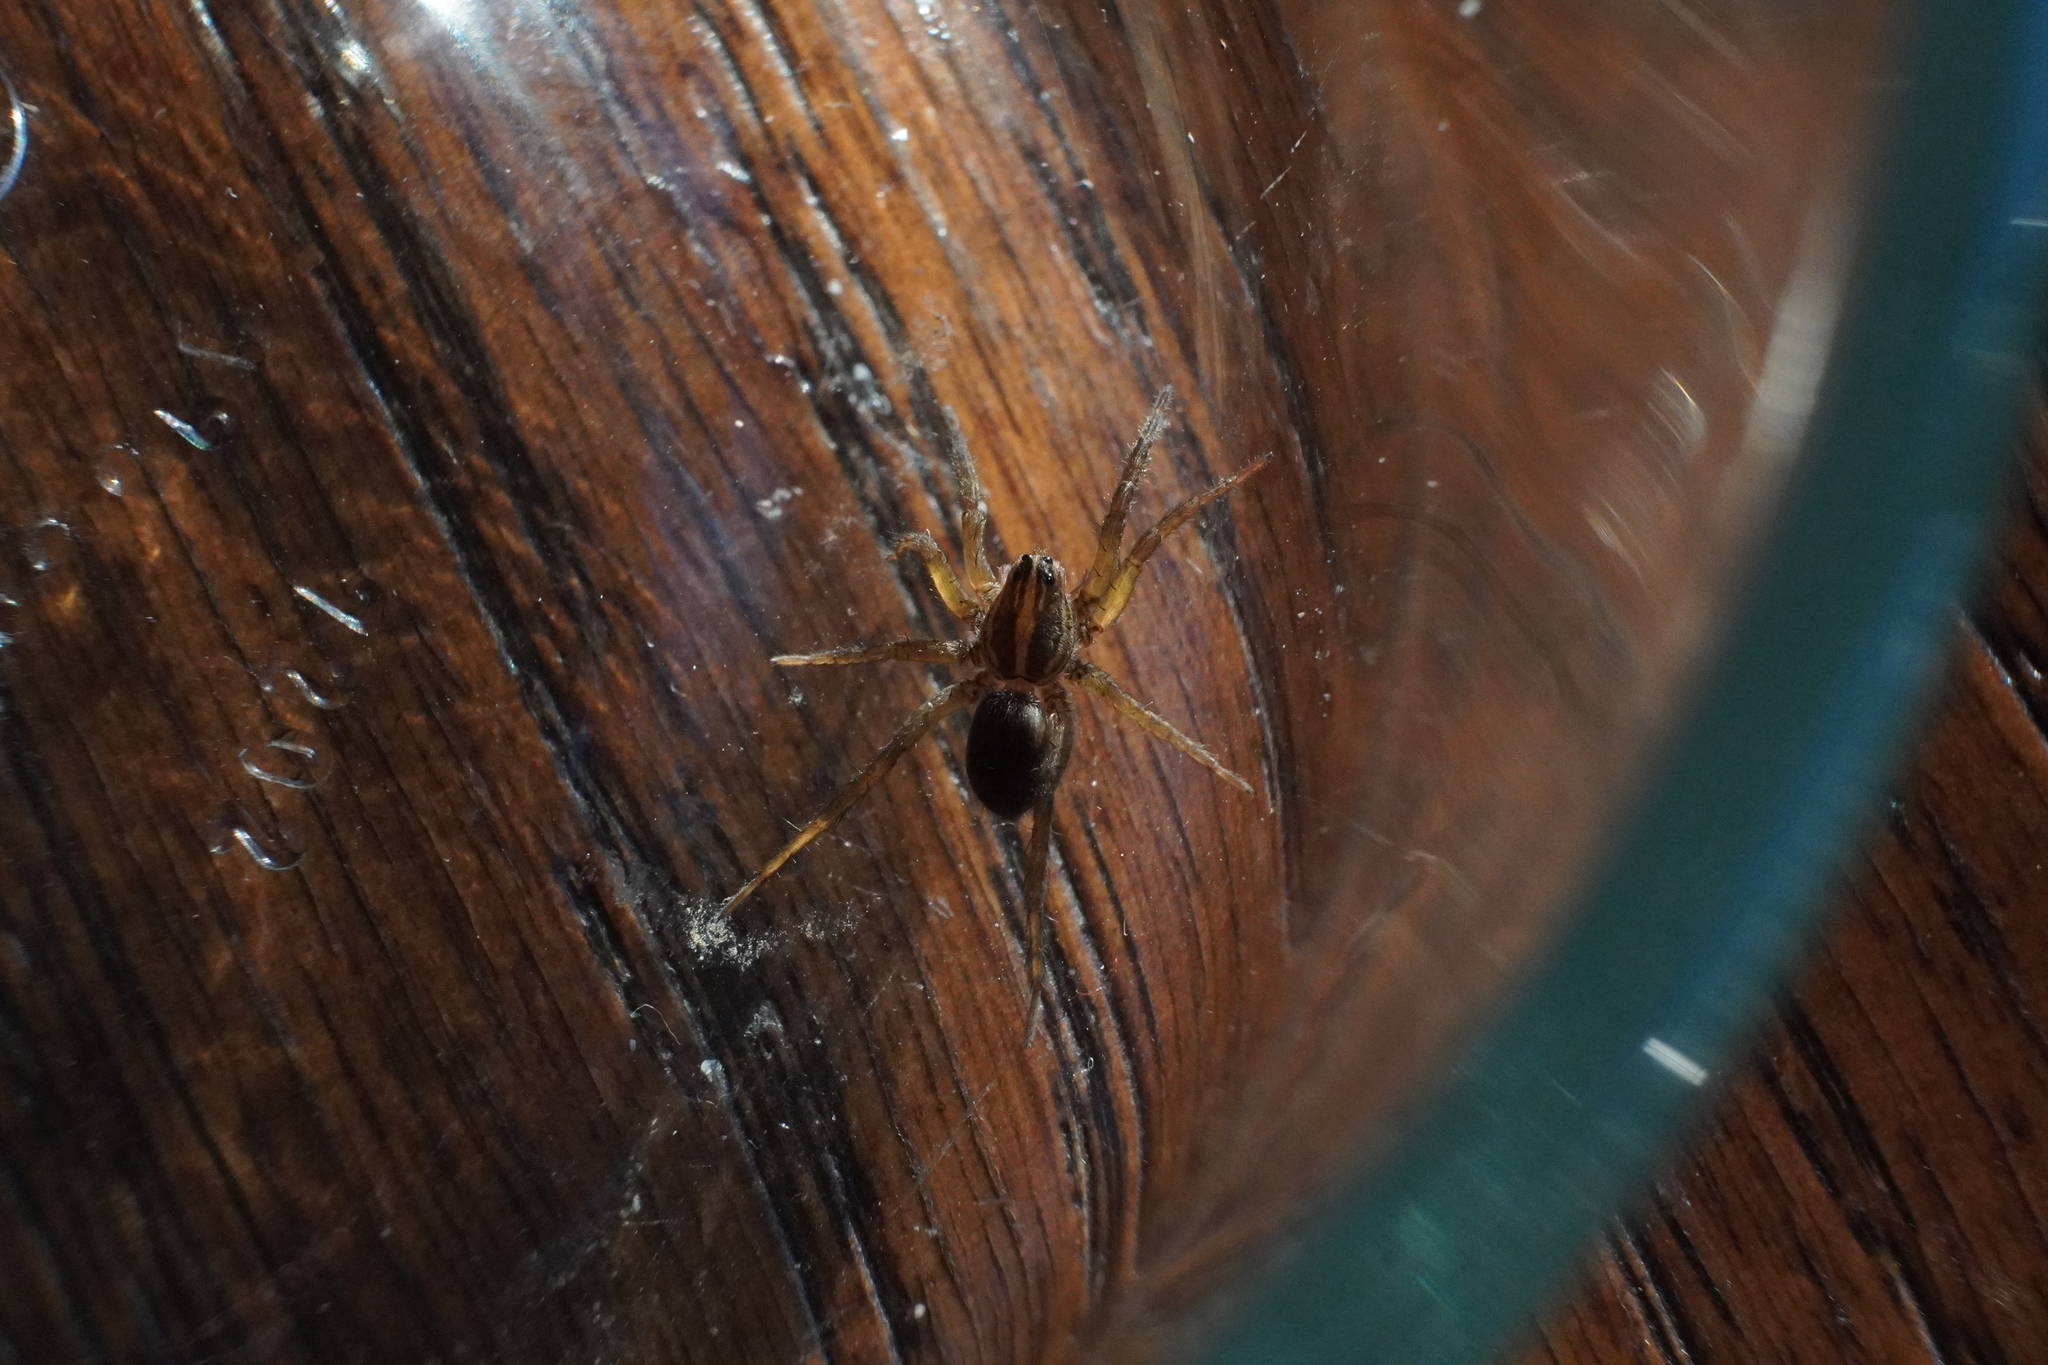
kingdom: Animalia
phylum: Arthropoda
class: Arachnida
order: Araneae
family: Lycosidae
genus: Tigrosa
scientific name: Tigrosa helluo
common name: Wetland giant wolf spider
